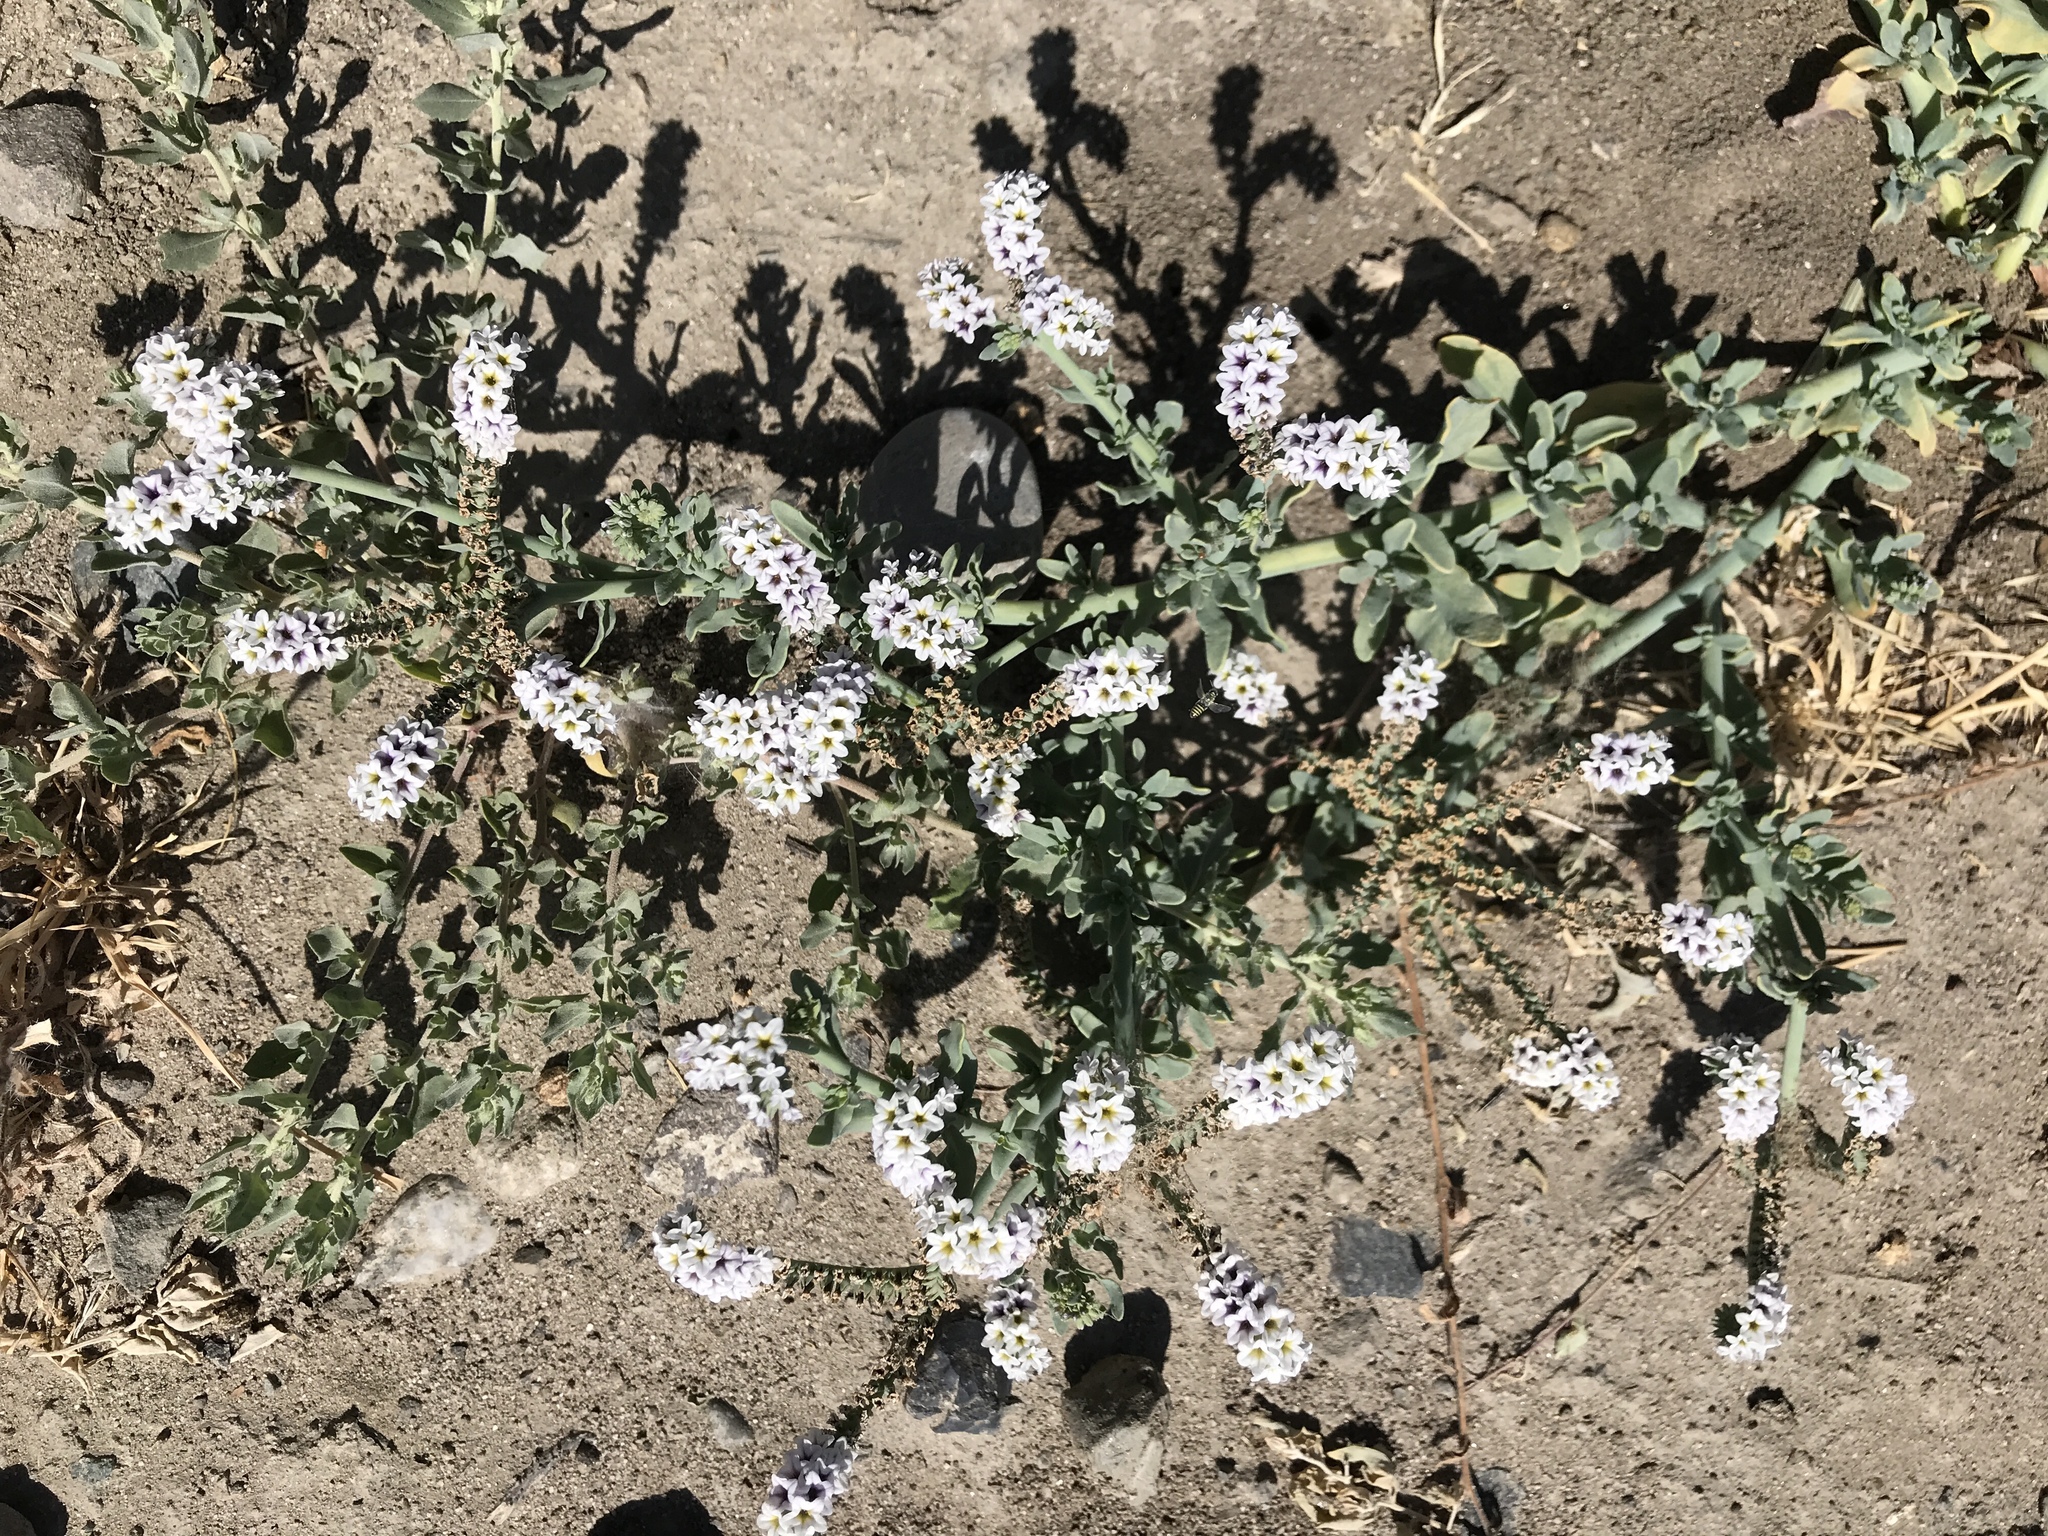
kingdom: Plantae
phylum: Tracheophyta
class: Magnoliopsida
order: Boraginales
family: Heliotropiaceae
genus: Heliotropium
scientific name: Heliotropium curassavicum
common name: Seaside heliotrope
